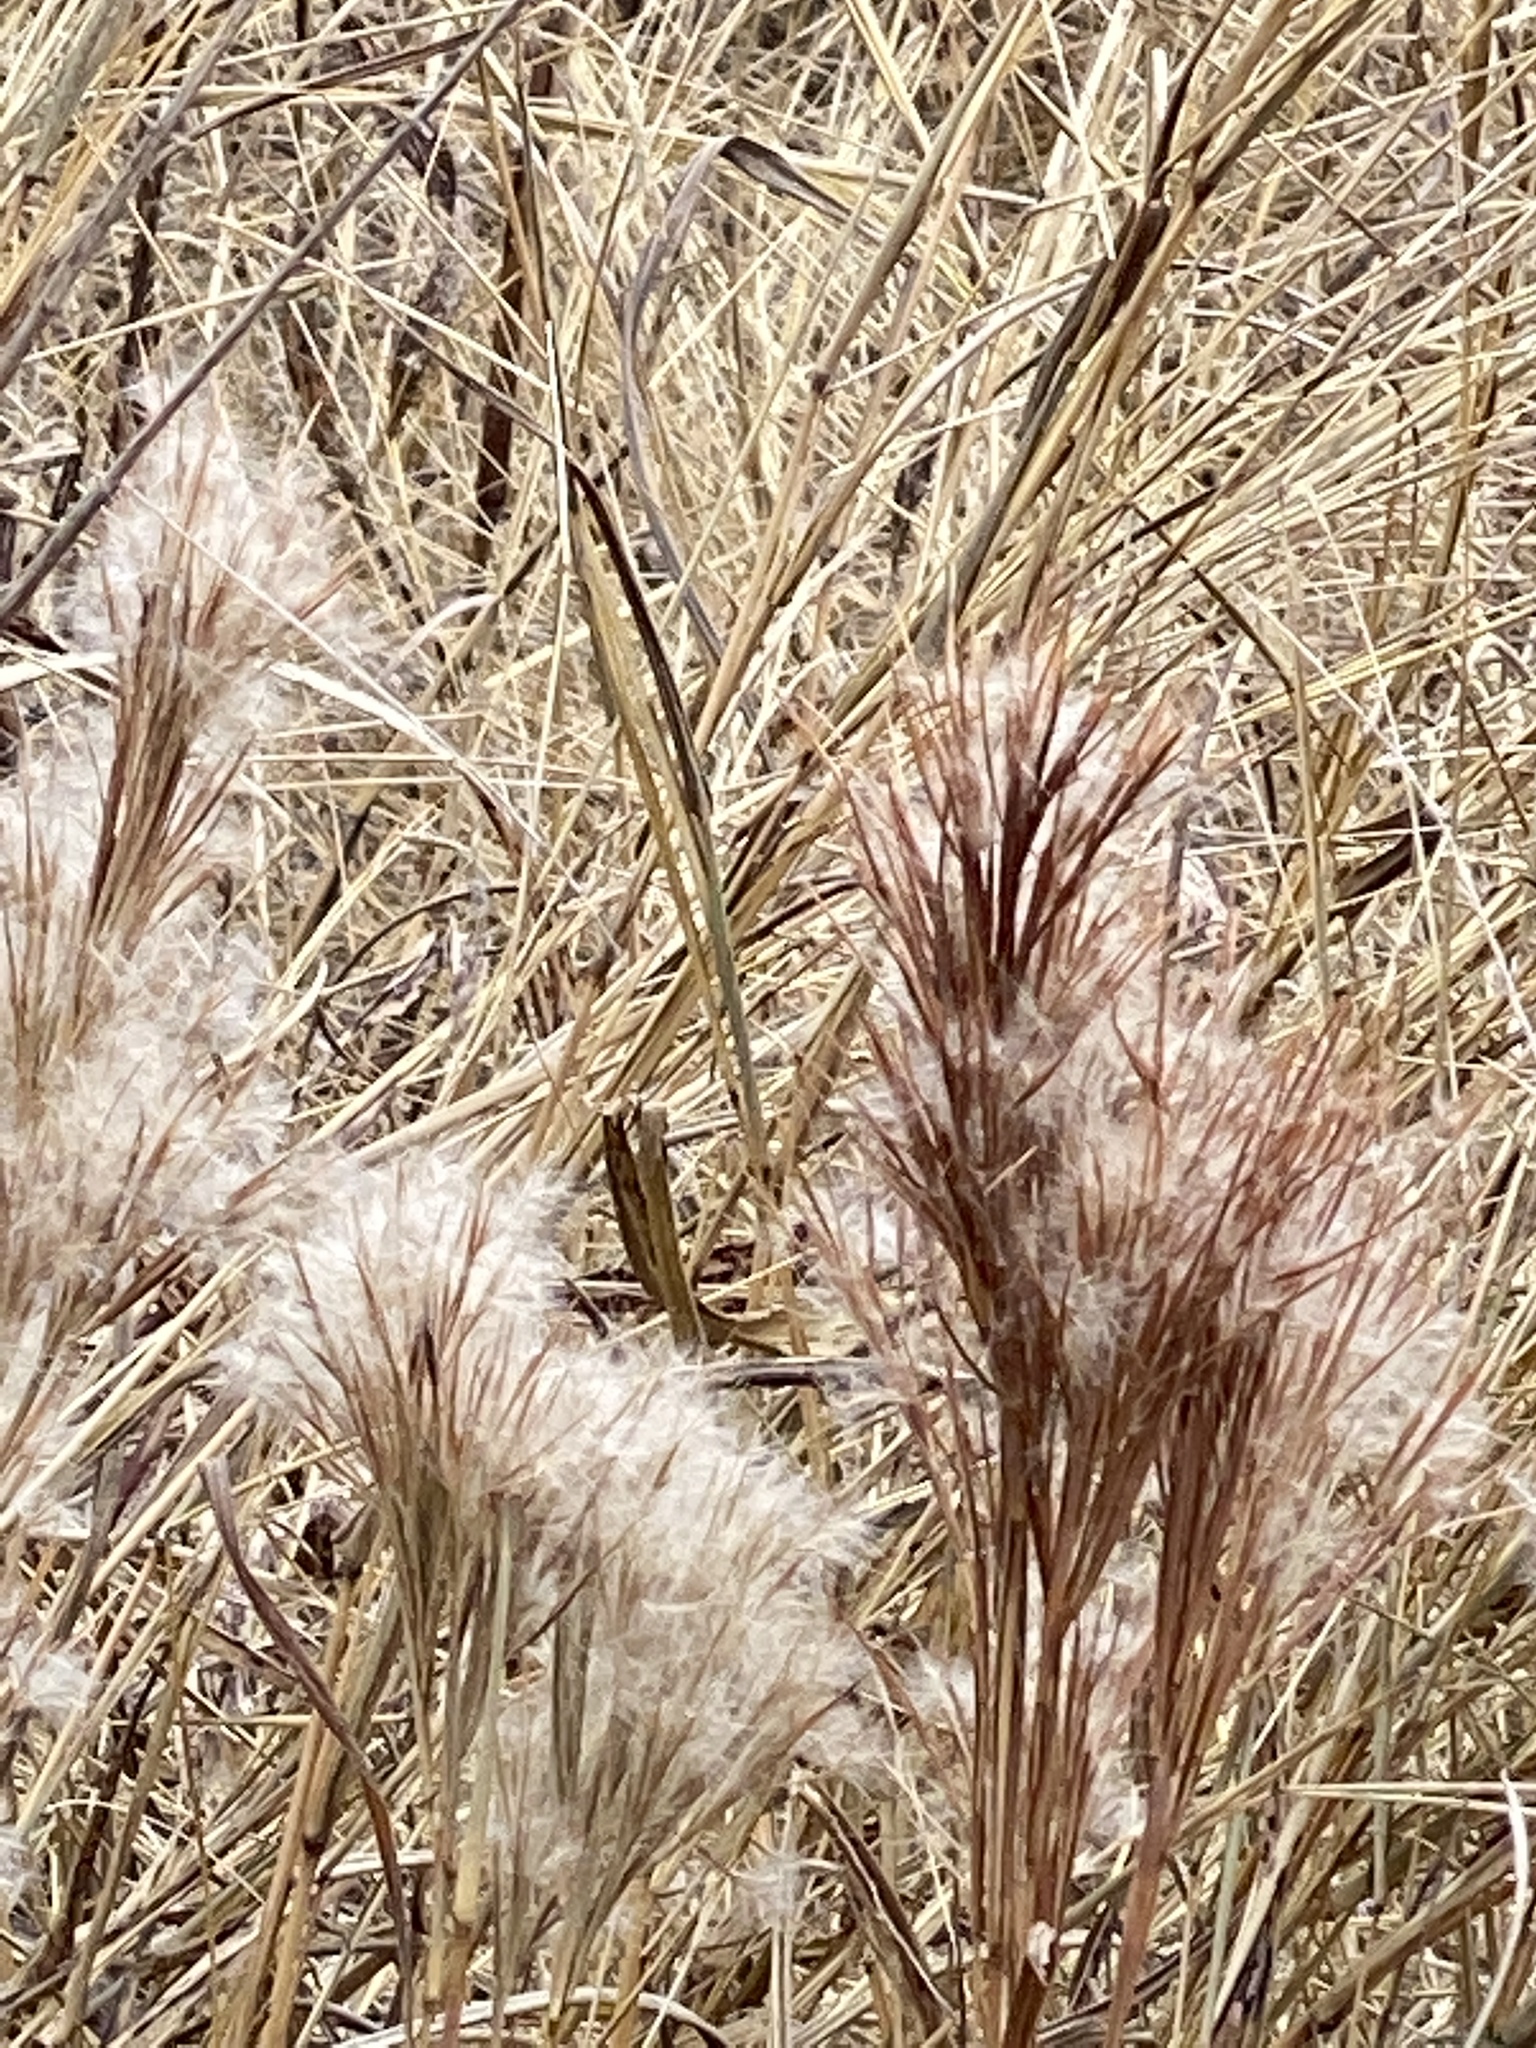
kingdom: Plantae
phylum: Tracheophyta
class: Liliopsida
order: Poales
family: Poaceae
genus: Andropogon
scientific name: Andropogon tenuispatheus
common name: Bushy bluestem
